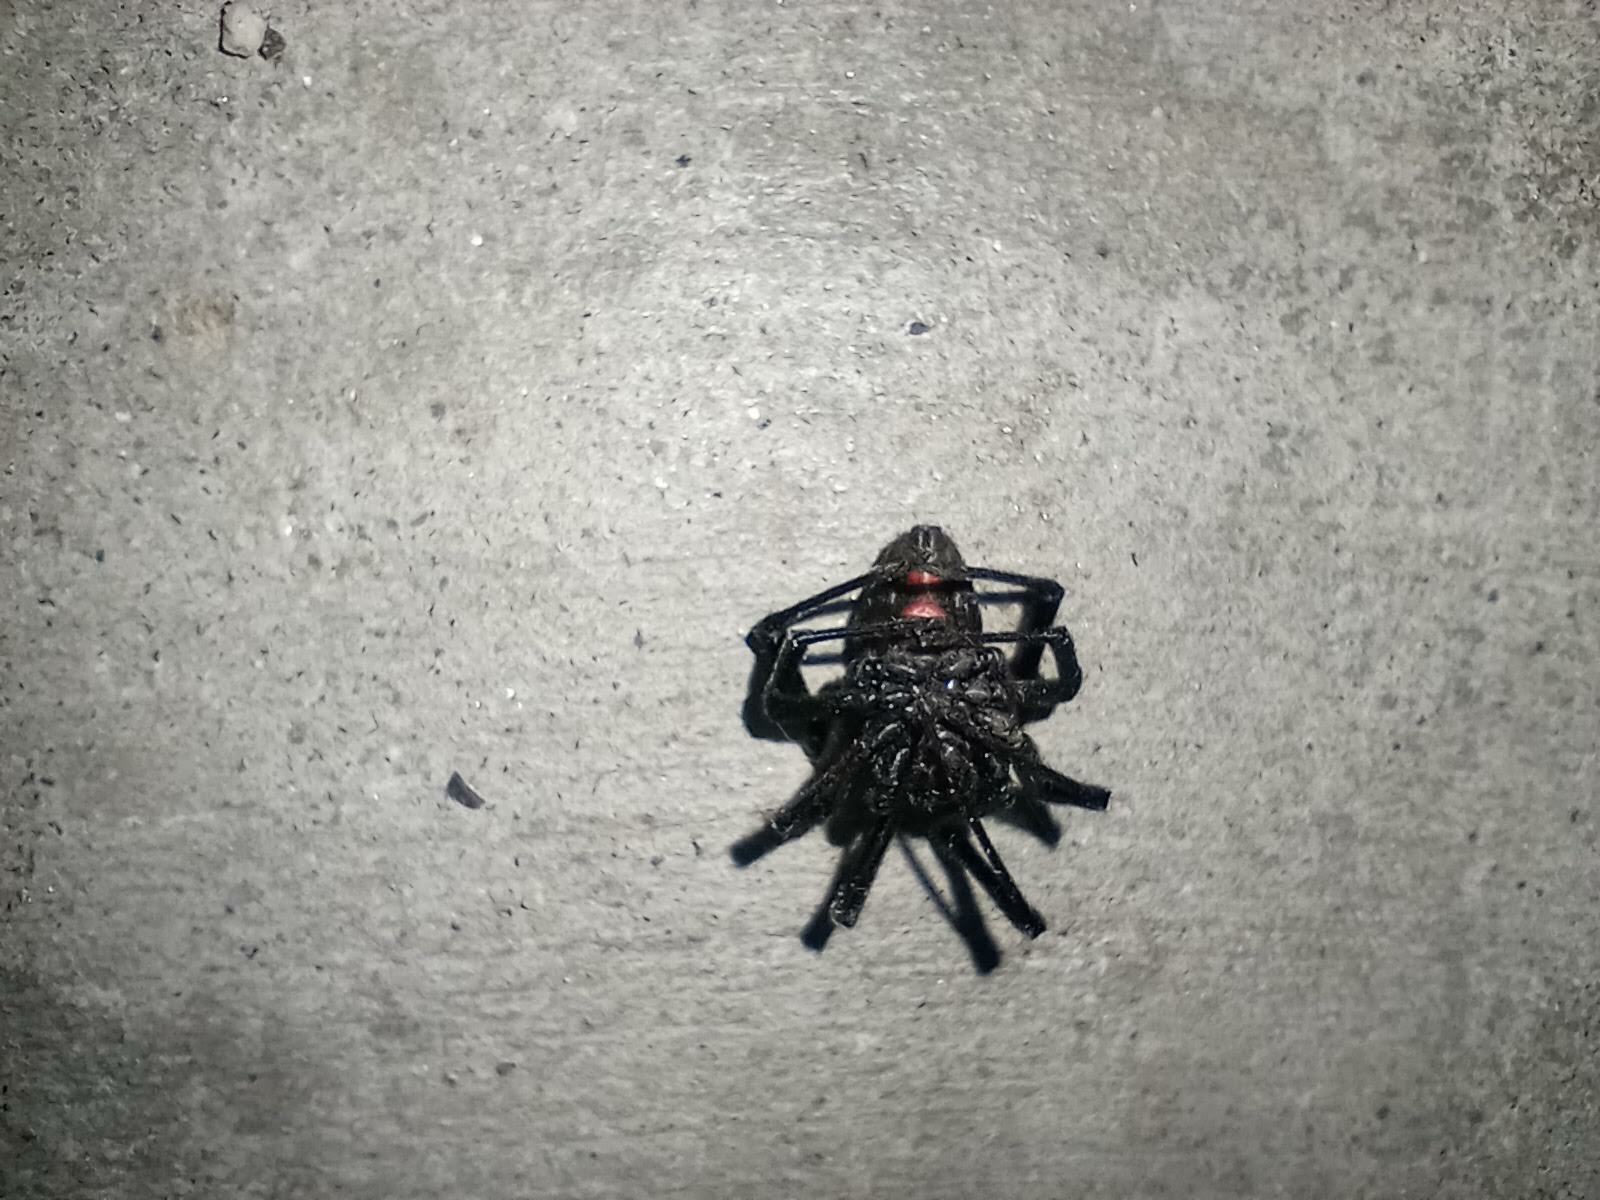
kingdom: Animalia
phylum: Arthropoda
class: Arachnida
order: Araneae
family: Theridiidae
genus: Latrodectus
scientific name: Latrodectus hesperus
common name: Western black widow
